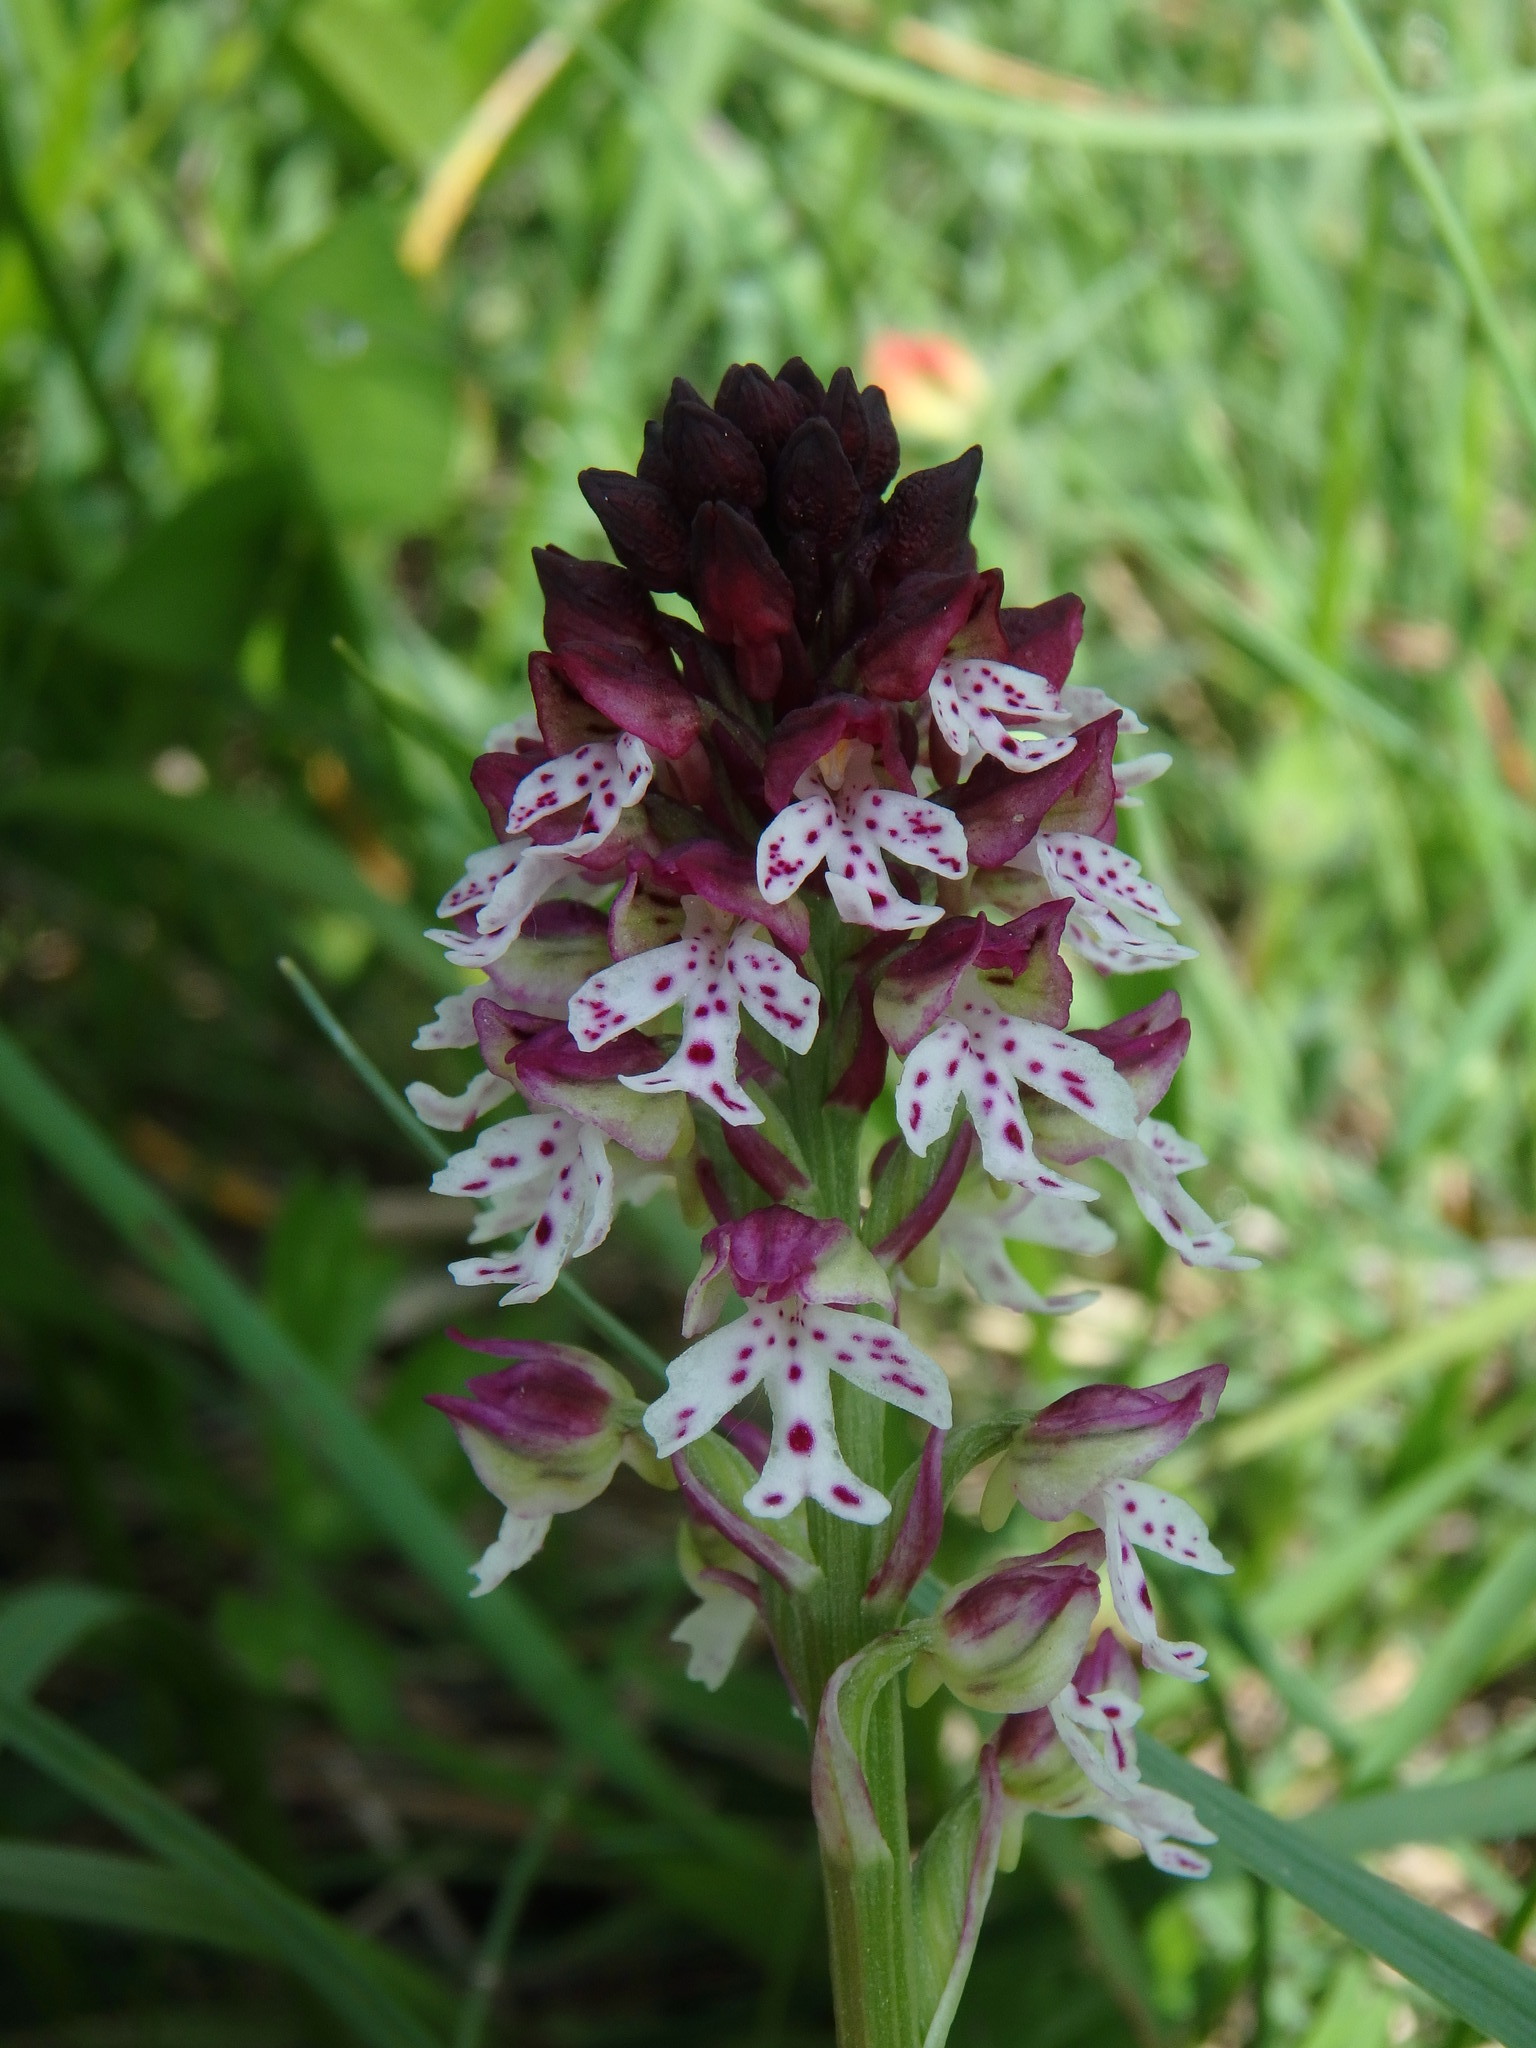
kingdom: Plantae
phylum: Tracheophyta
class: Liliopsida
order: Asparagales
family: Orchidaceae
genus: Neotinea
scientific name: Neotinea ustulata
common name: Burnt orchid
